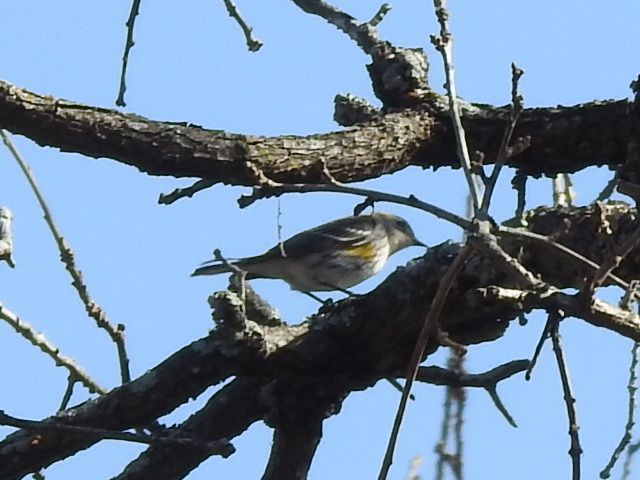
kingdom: Animalia
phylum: Chordata
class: Aves
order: Passeriformes
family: Parulidae
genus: Setophaga
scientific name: Setophaga coronata
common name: Myrtle warbler
